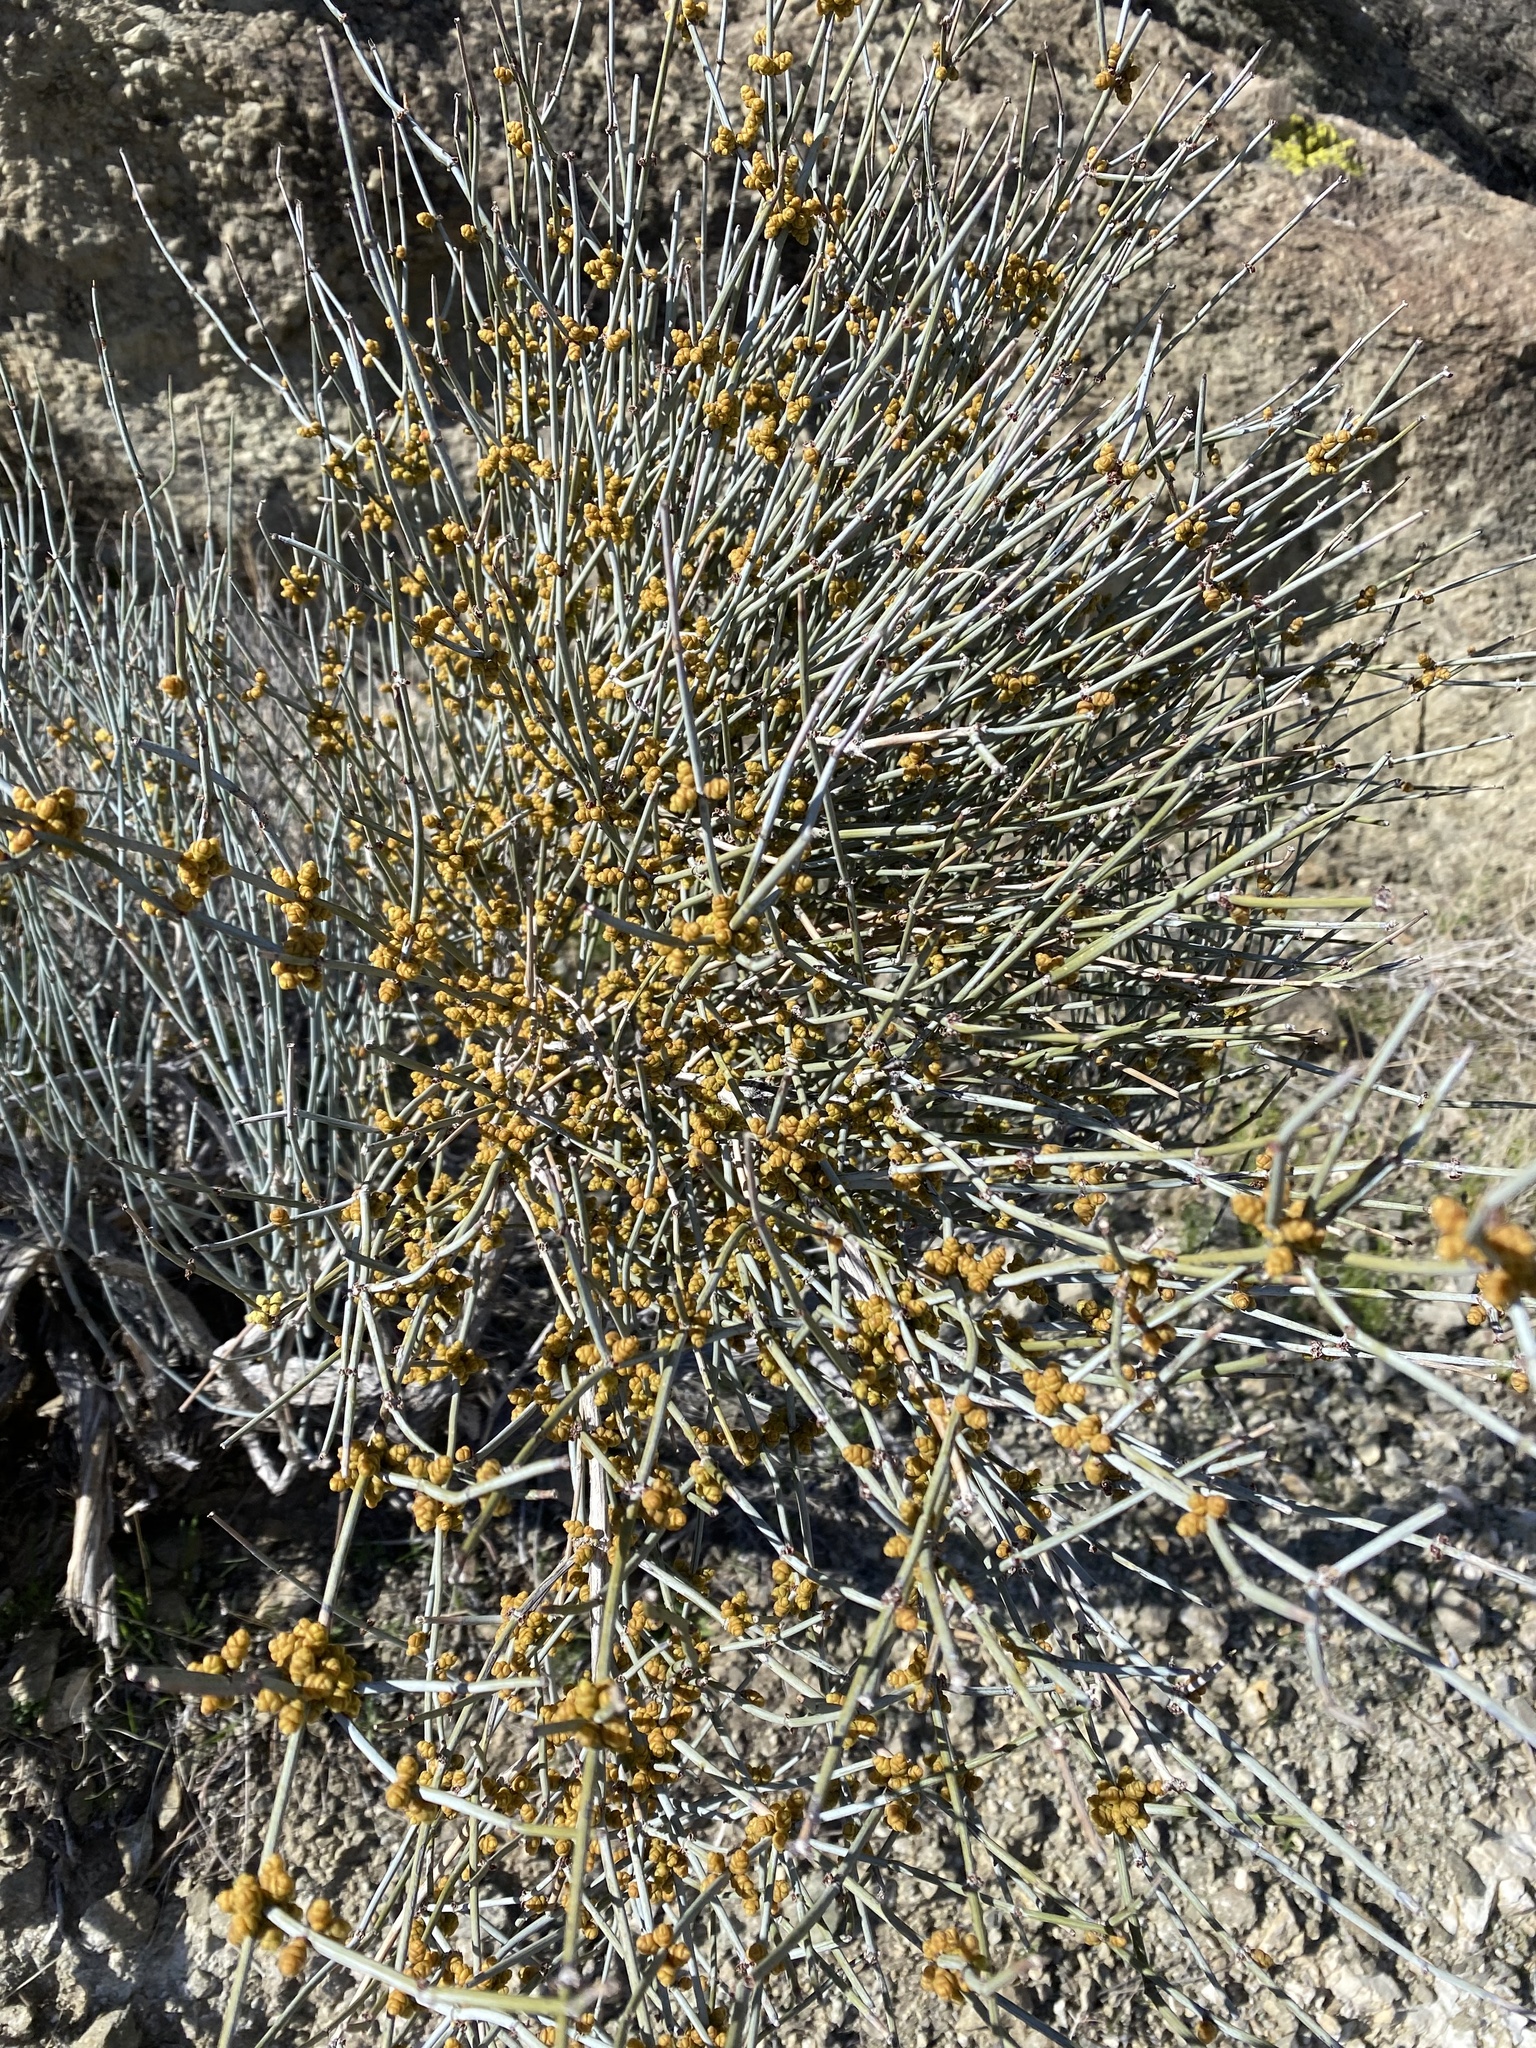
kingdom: Plantae
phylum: Tracheophyta
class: Gnetopsida
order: Ephedrales
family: Ephedraceae
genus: Ephedra
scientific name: Ephedra nevadensis
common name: Gray ephedra
